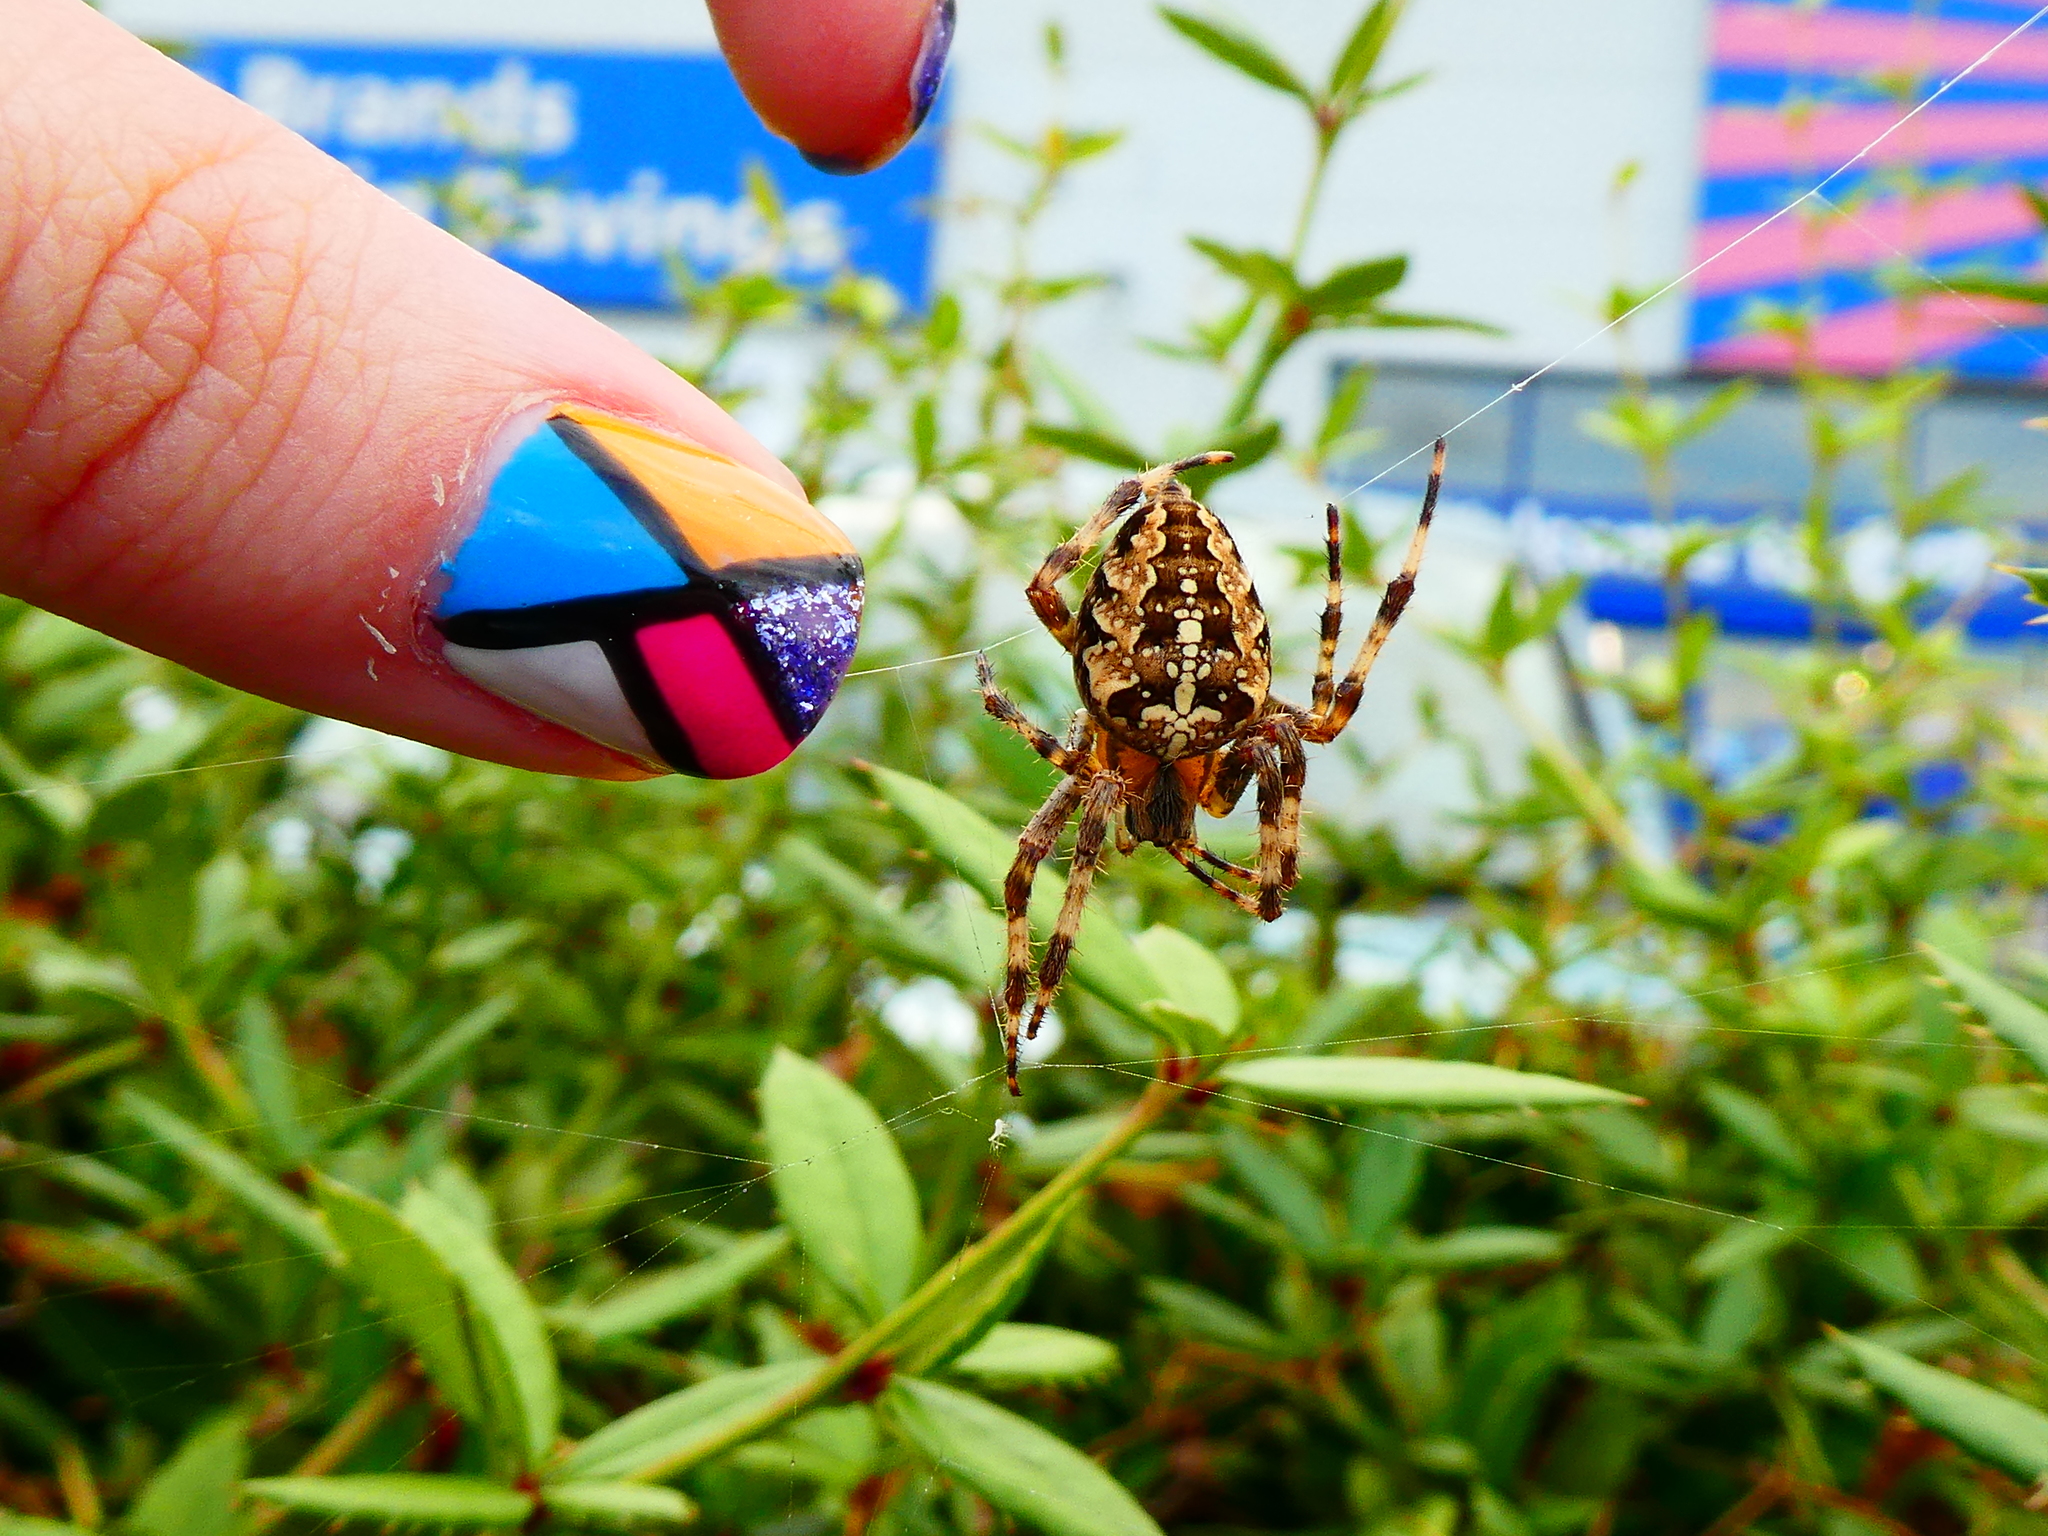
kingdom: Animalia
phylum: Arthropoda
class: Arachnida
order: Araneae
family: Araneidae
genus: Araneus
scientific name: Araneus diadematus
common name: Cross orbweaver
